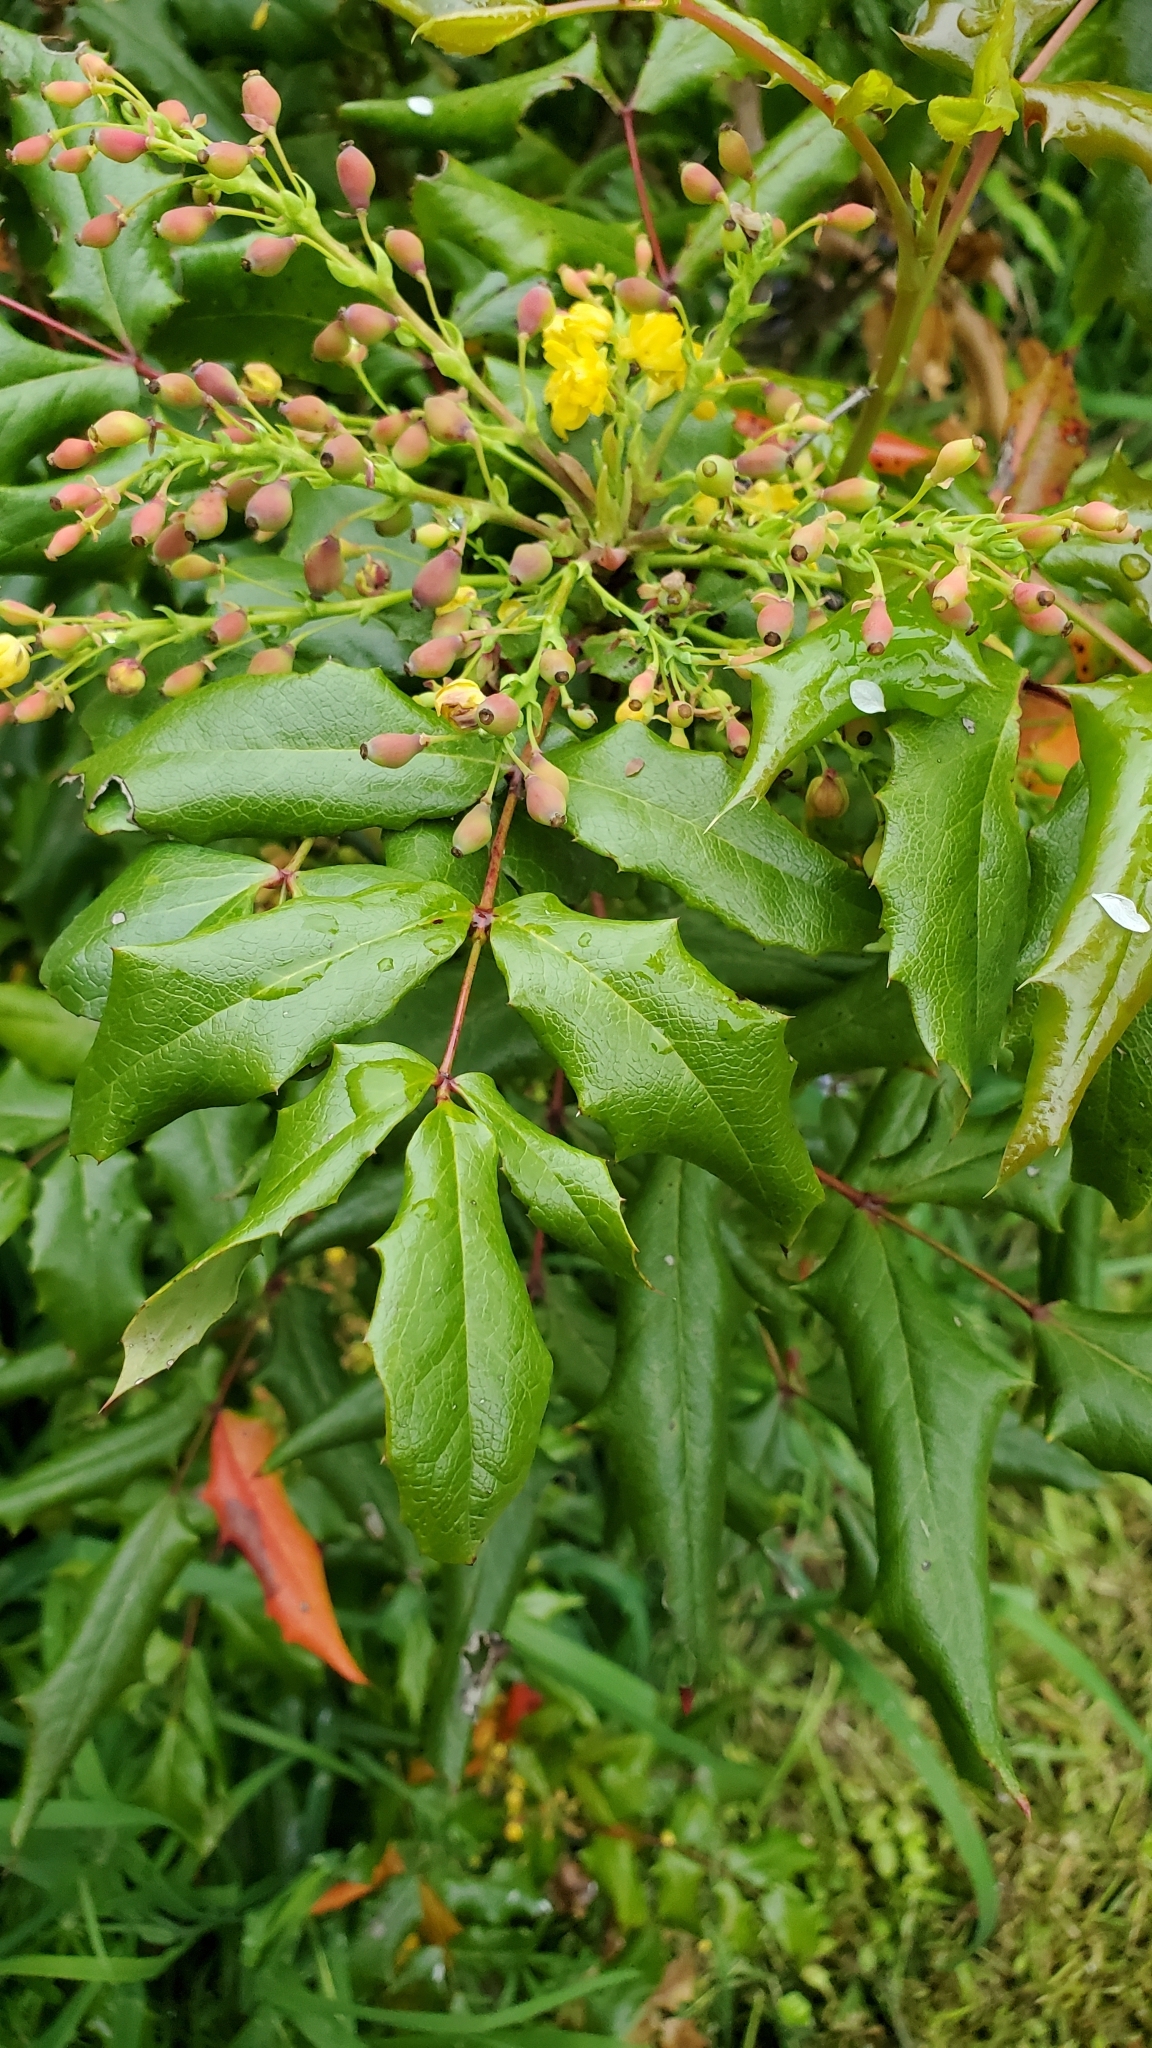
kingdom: Plantae
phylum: Tracheophyta
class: Magnoliopsida
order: Ranunculales
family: Berberidaceae
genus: Mahonia
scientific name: Mahonia aquifolium
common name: Oregon-grape
